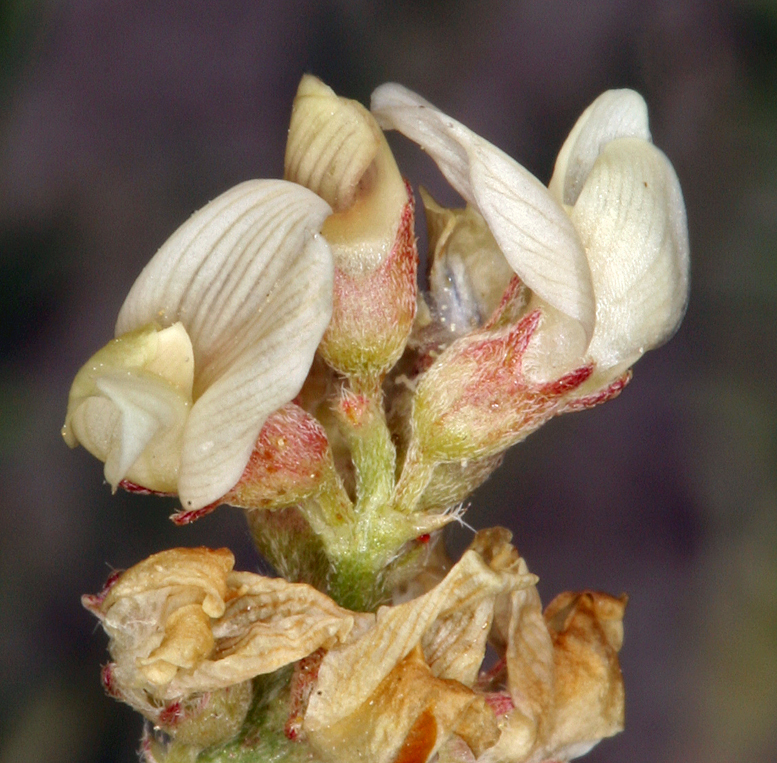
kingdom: Plantae
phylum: Tracheophyta
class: Magnoliopsida
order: Fabales
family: Fabaceae
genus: Astragalus
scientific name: Astragalus johannis-howellii
